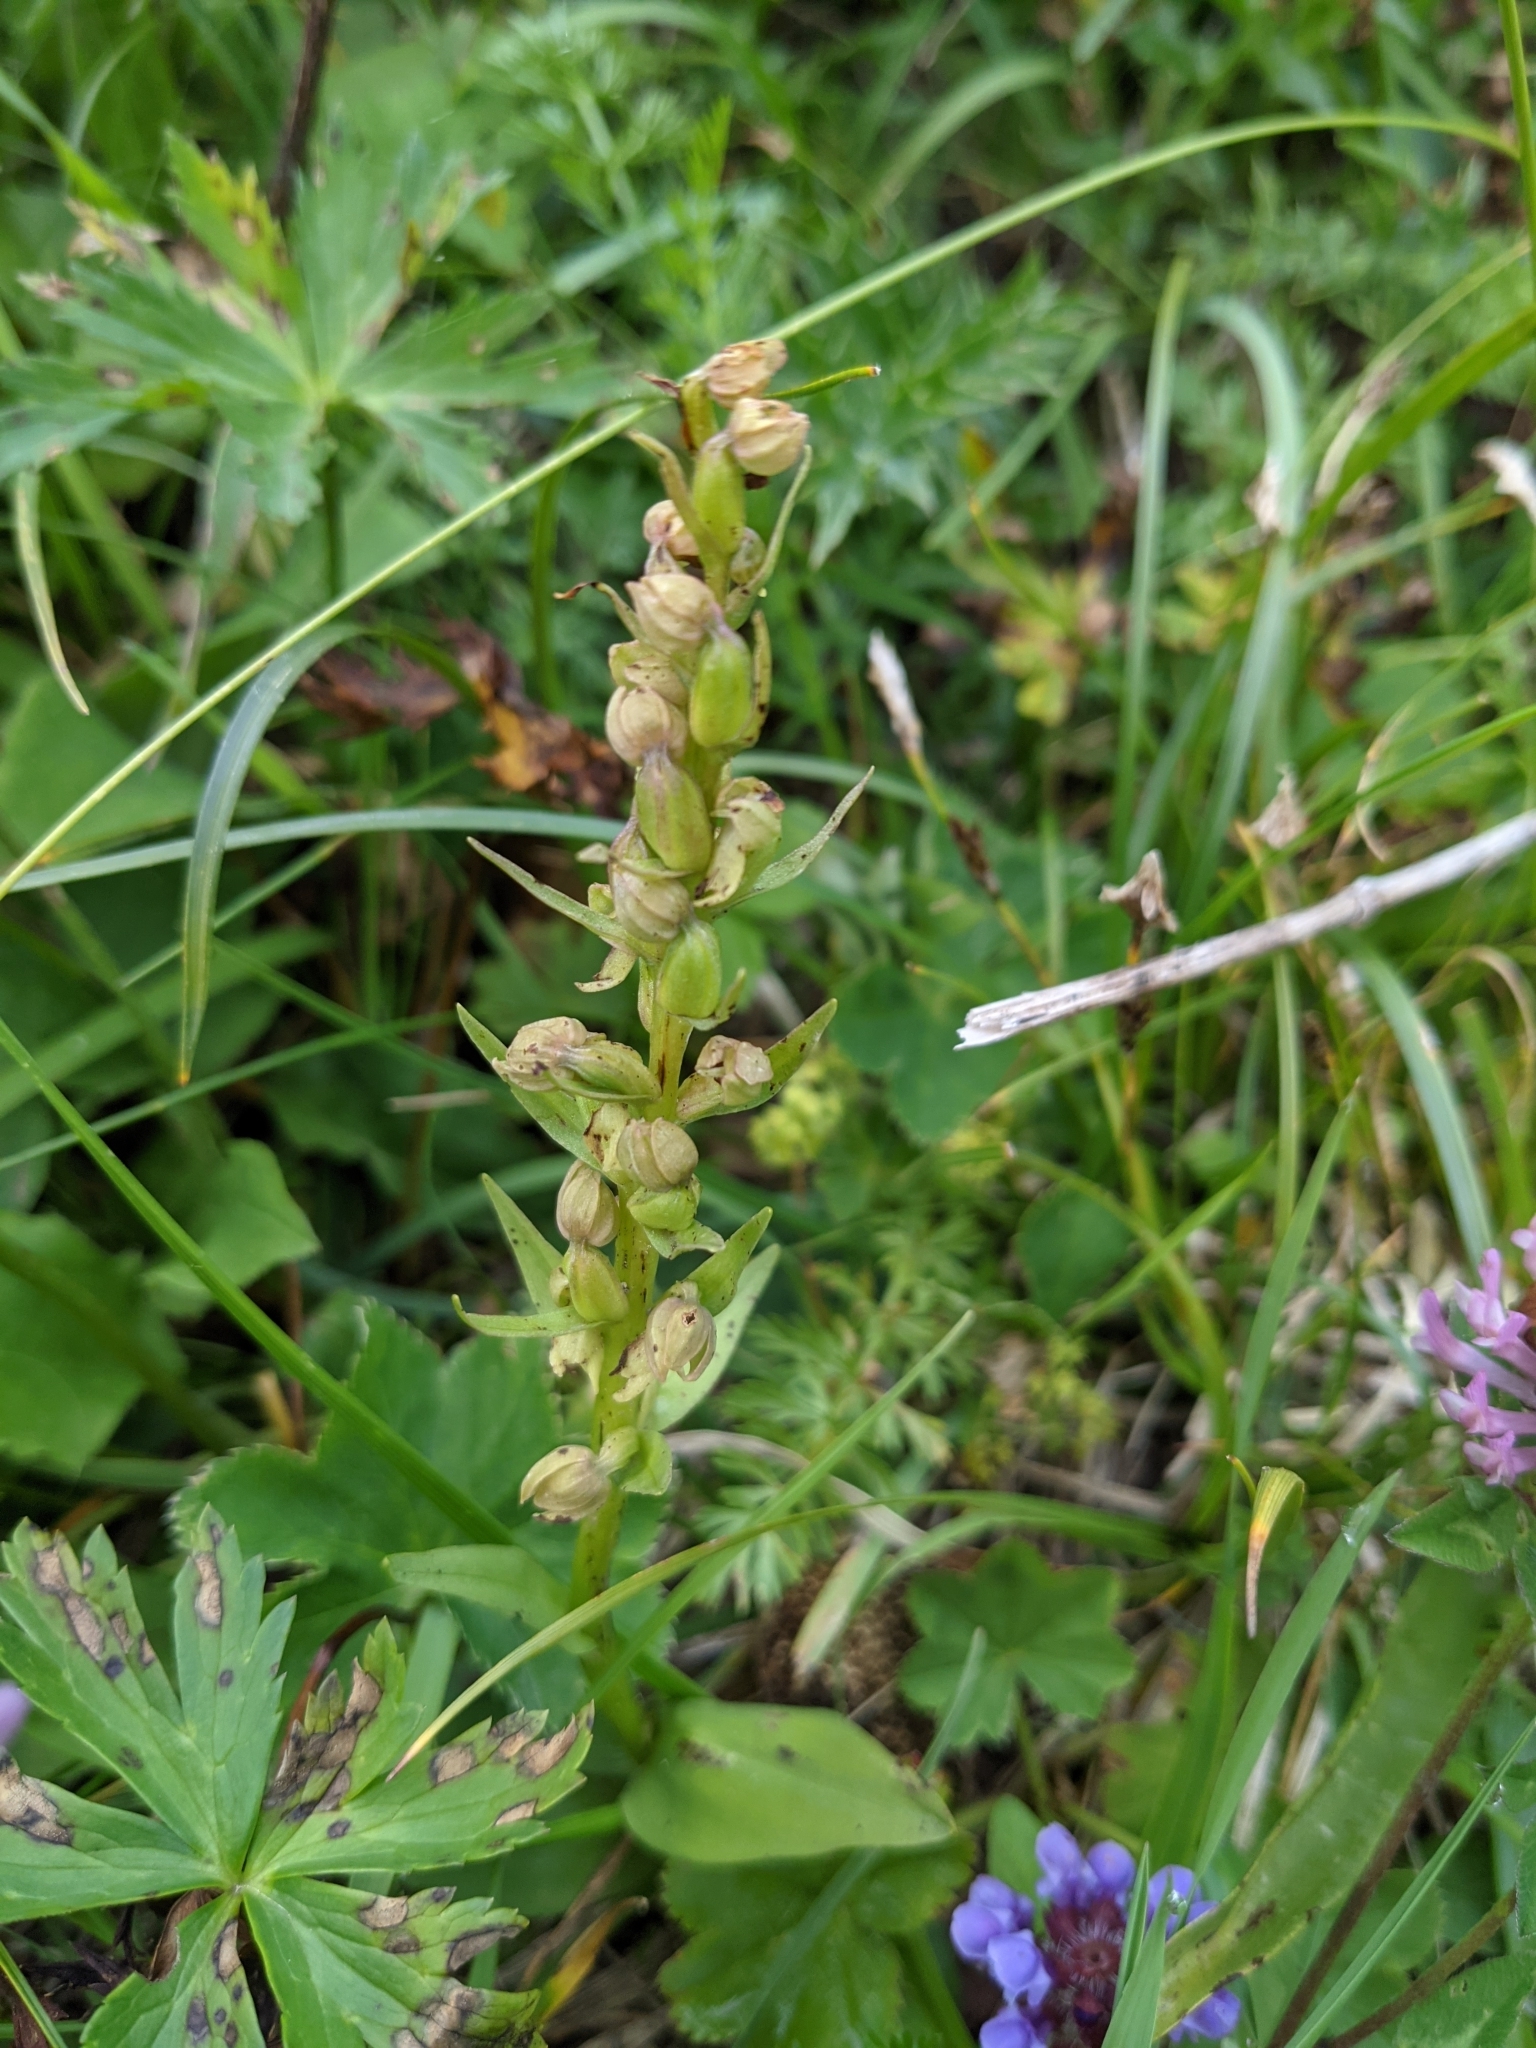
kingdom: Plantae
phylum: Tracheophyta
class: Liliopsida
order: Asparagales
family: Orchidaceae
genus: Dactylorhiza
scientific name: Dactylorhiza viridis
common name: Longbract frog orchid
